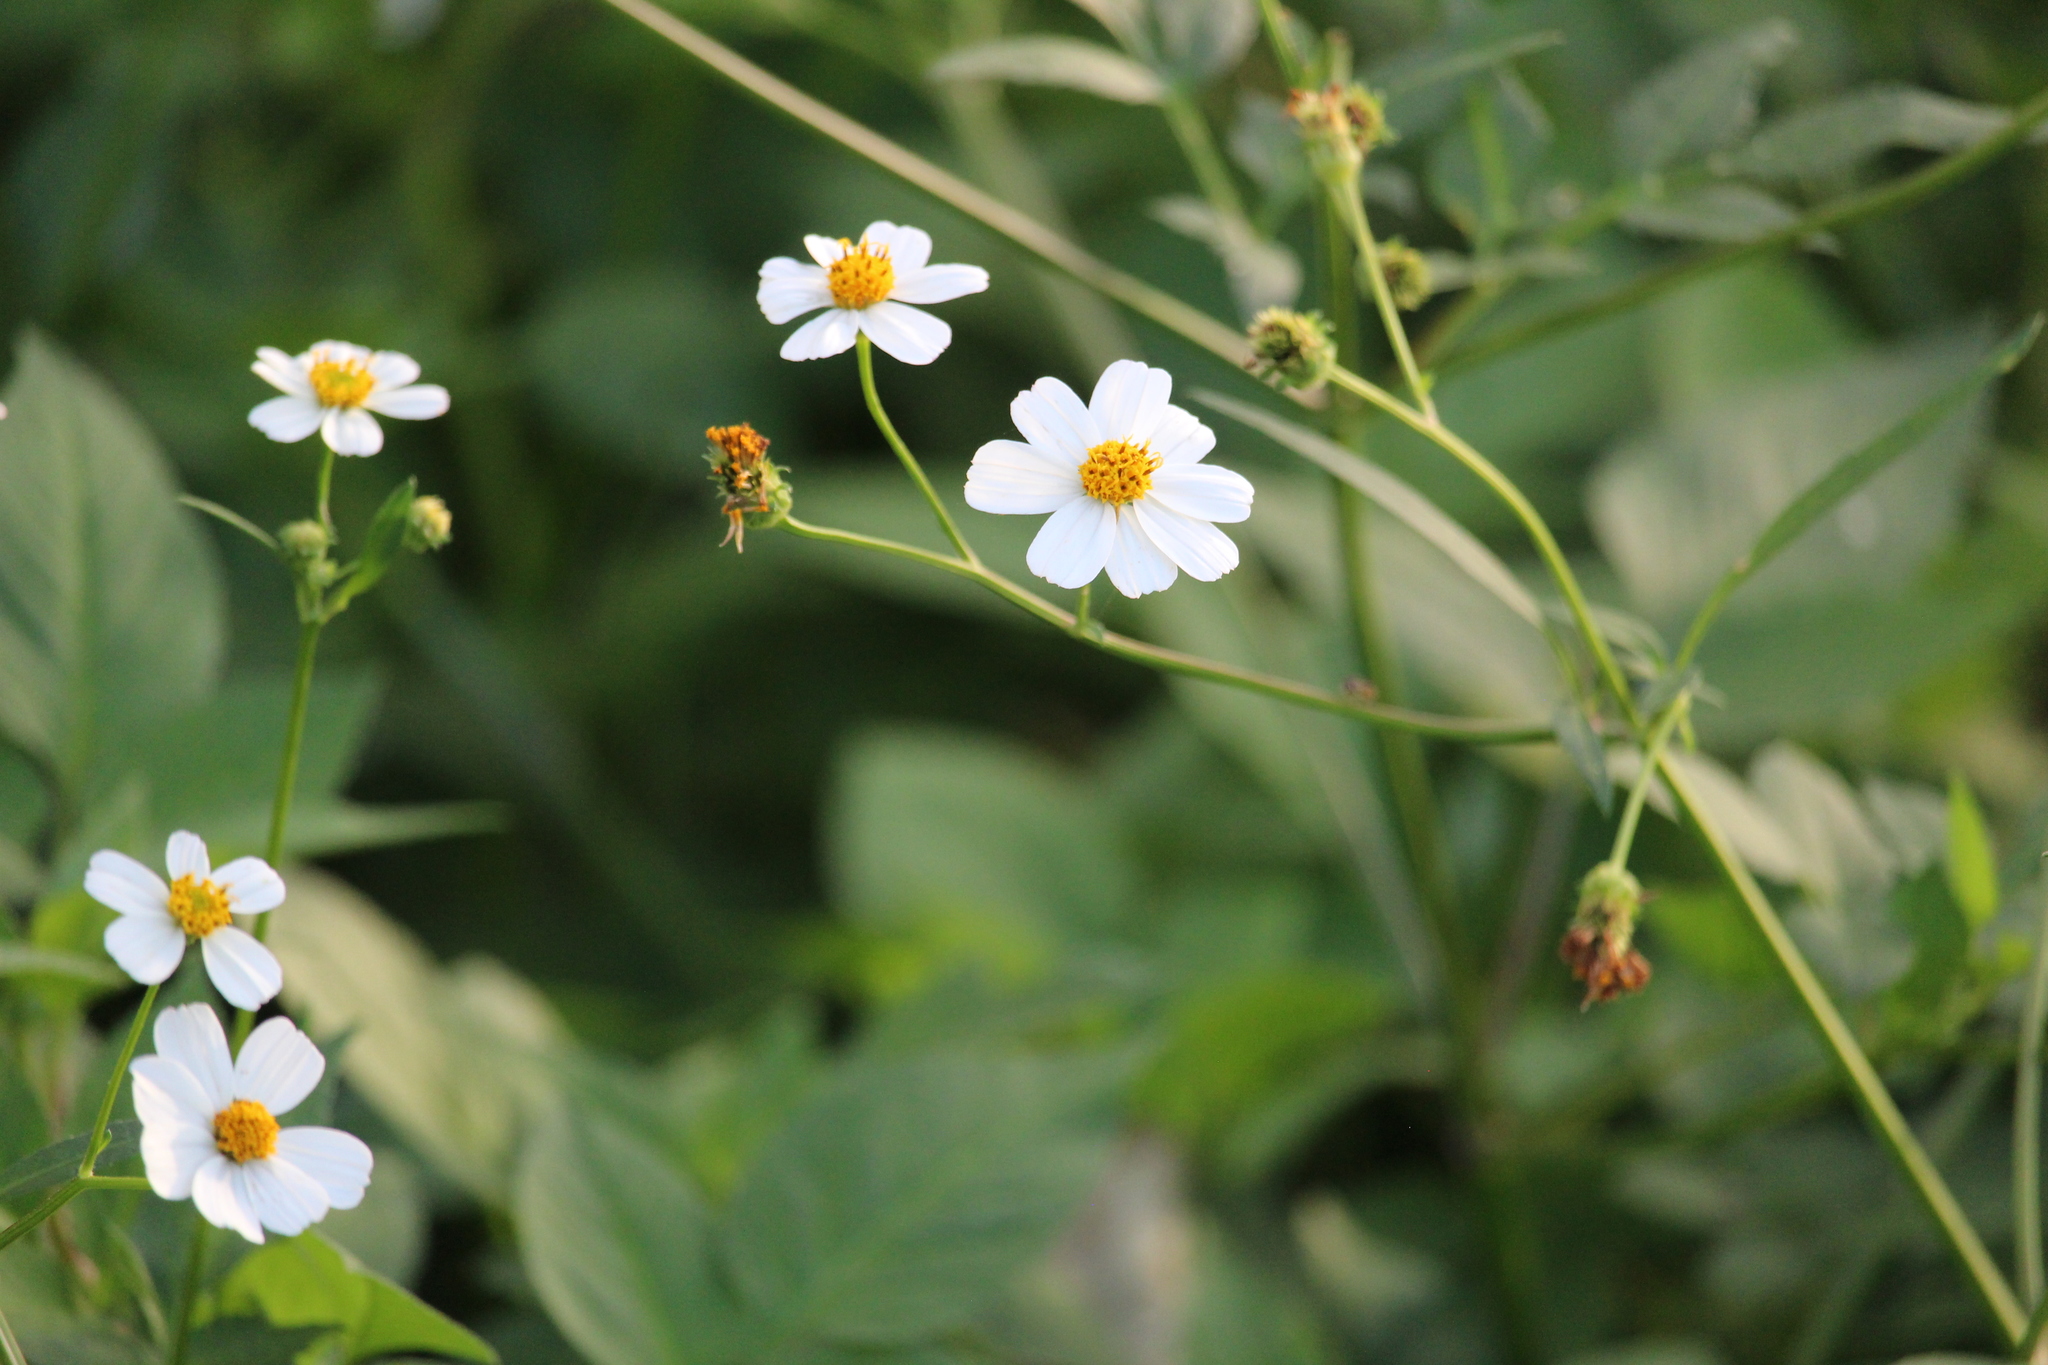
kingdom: Plantae
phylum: Tracheophyta
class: Magnoliopsida
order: Asterales
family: Asteraceae
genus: Bidens
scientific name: Bidens alba
